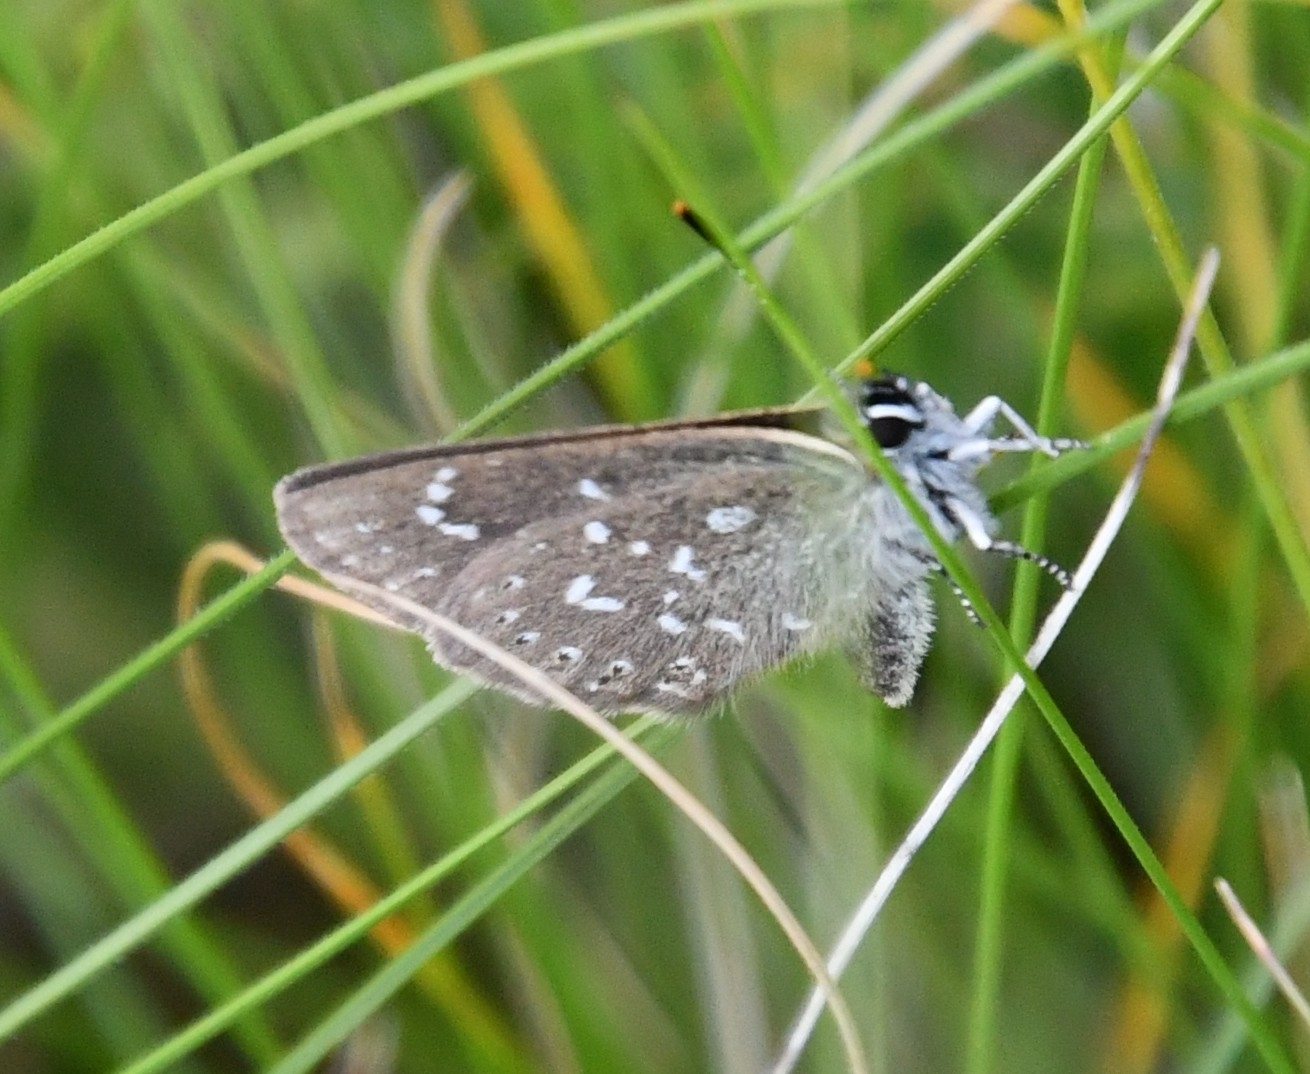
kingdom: Animalia
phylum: Arthropoda
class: Insecta
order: Lepidoptera
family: Lycaenidae
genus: Thecla
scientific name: Thecla rhymnus
